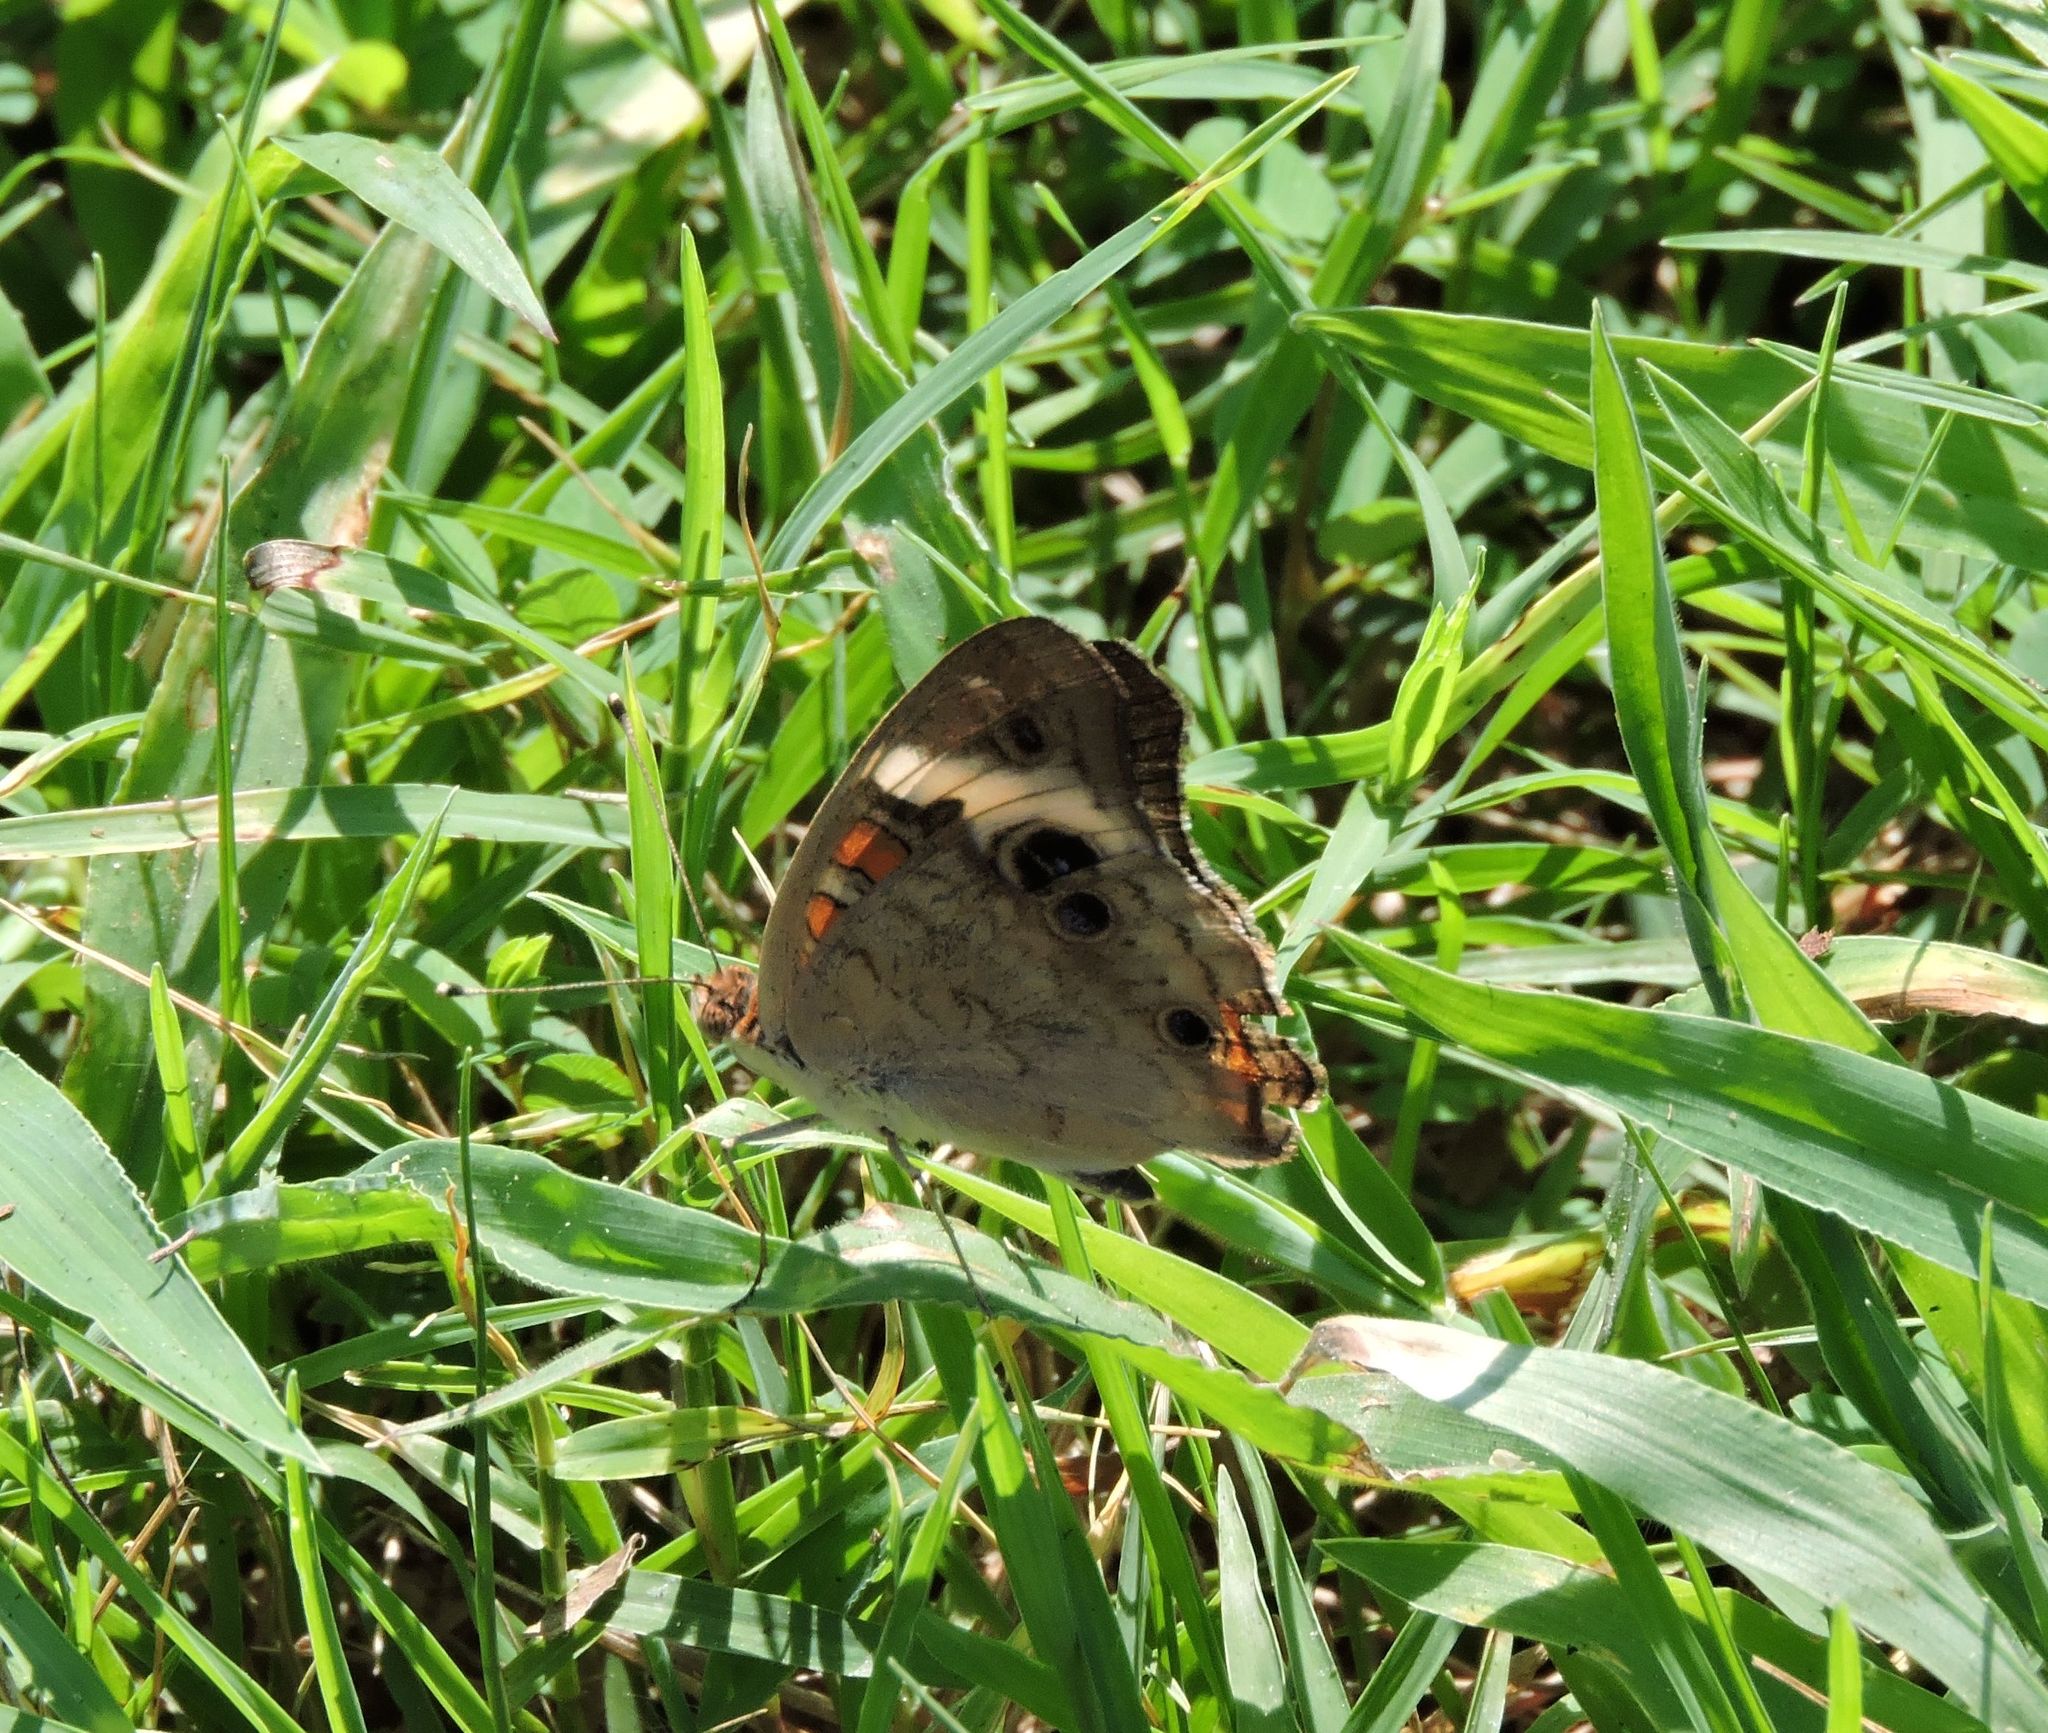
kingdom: Animalia
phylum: Arthropoda
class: Insecta
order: Lepidoptera
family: Nymphalidae
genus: Junonia
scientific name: Junonia coenia
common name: Common buckeye
